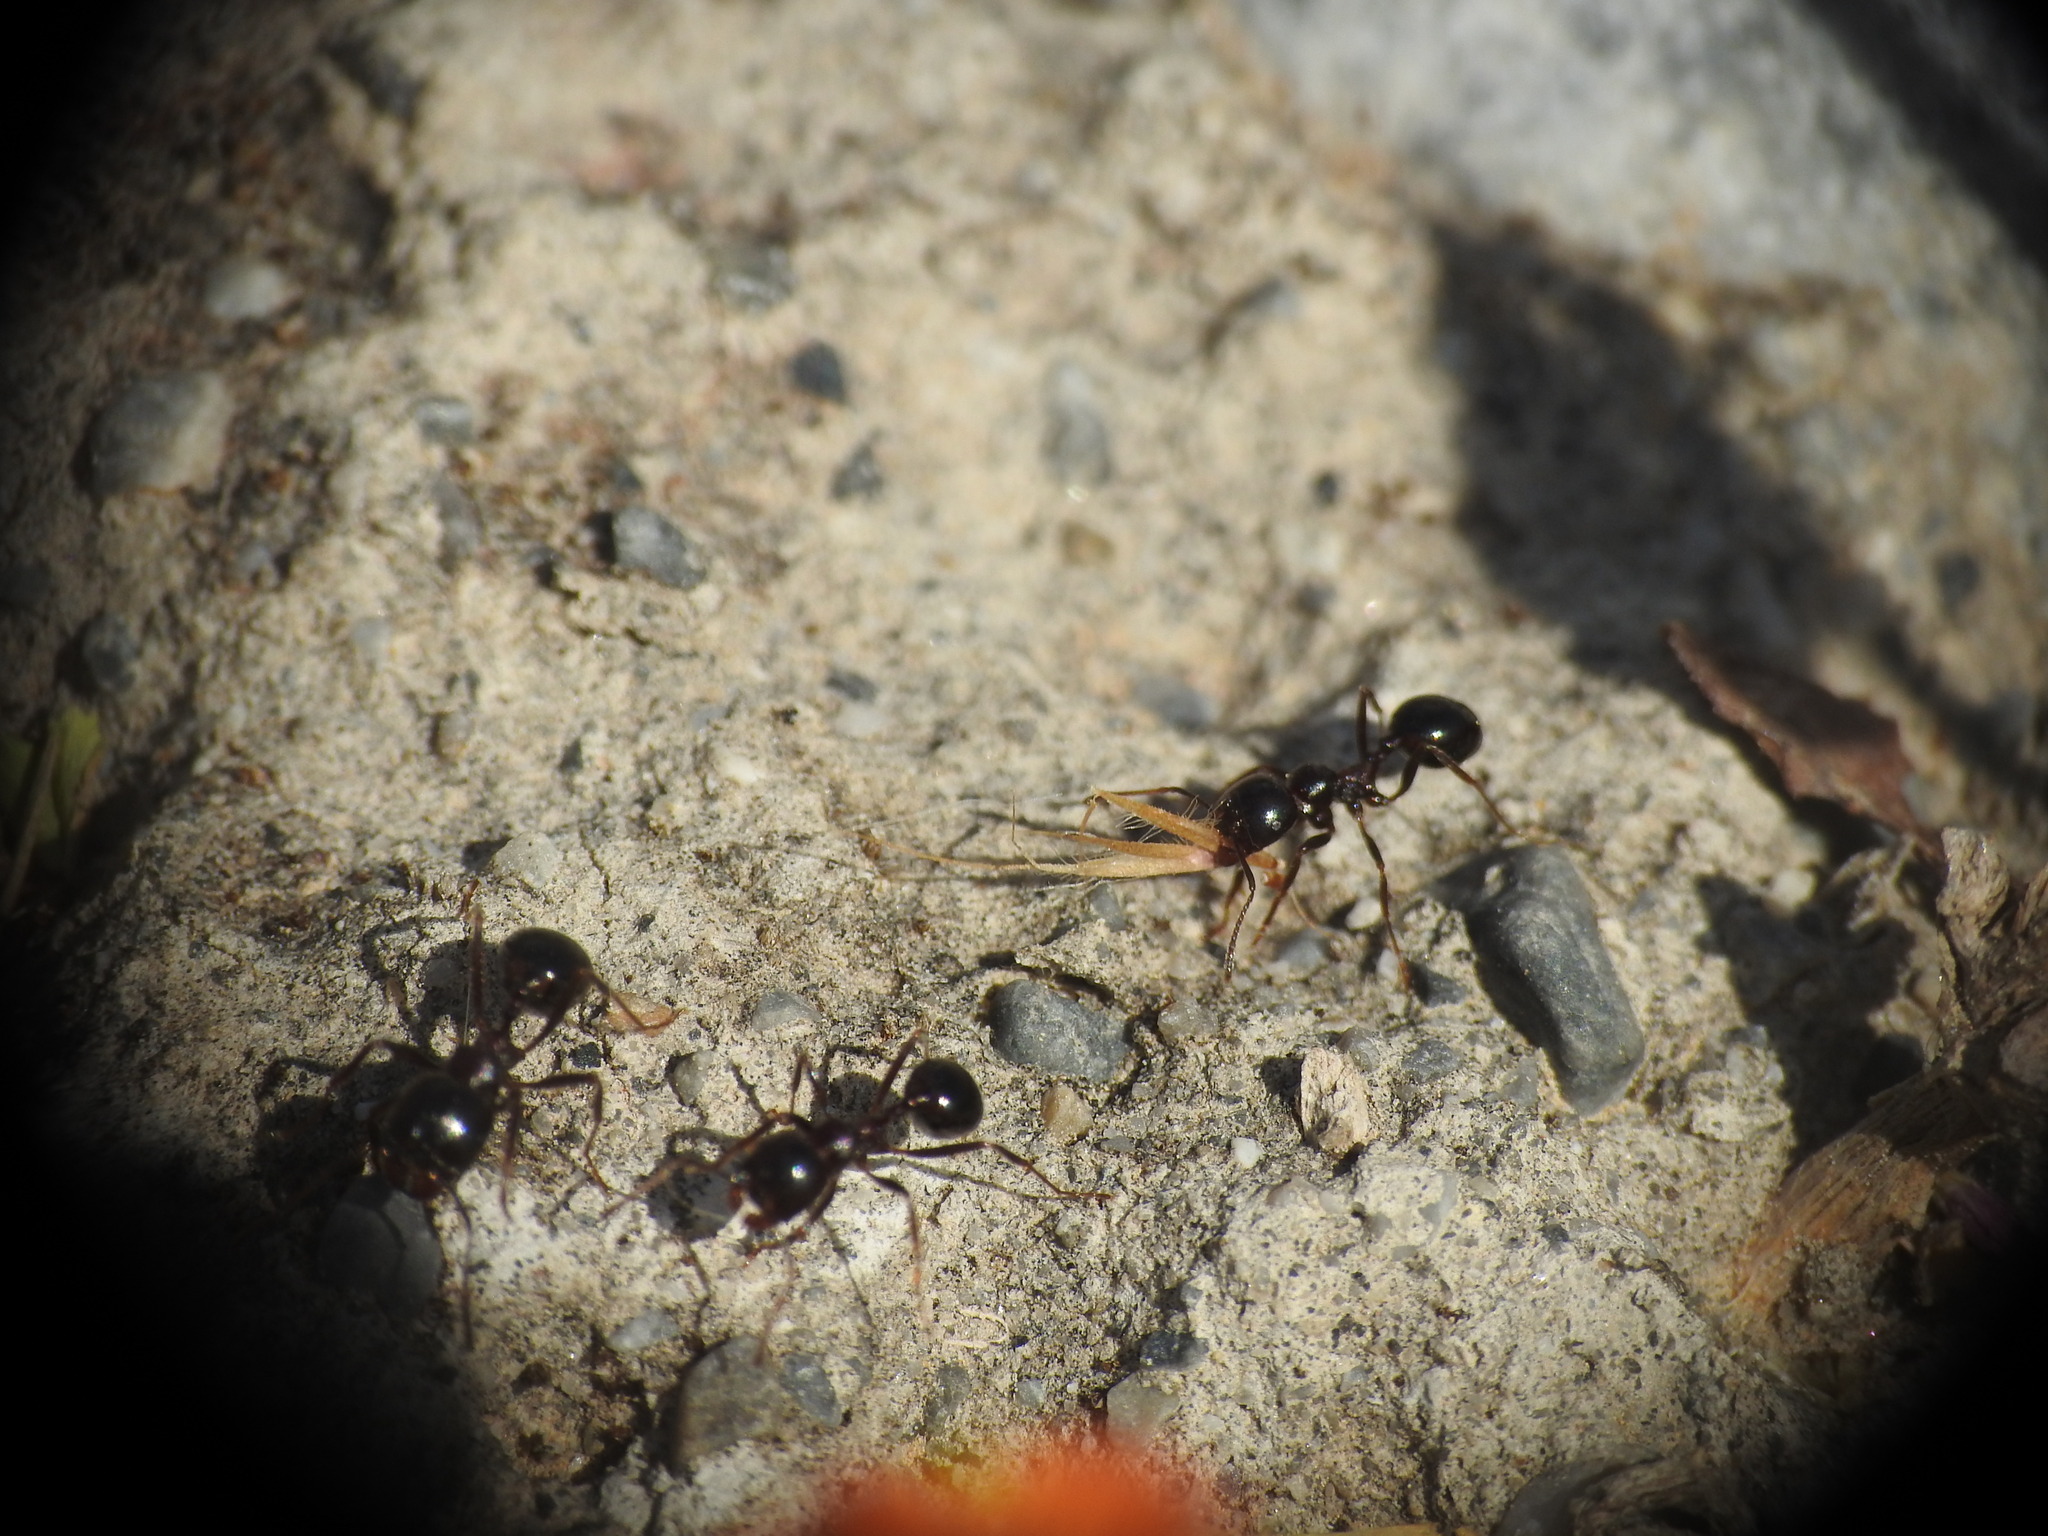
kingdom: Animalia
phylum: Arthropoda
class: Insecta
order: Hymenoptera
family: Formicidae
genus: Messor
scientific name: Messor wasmanni
